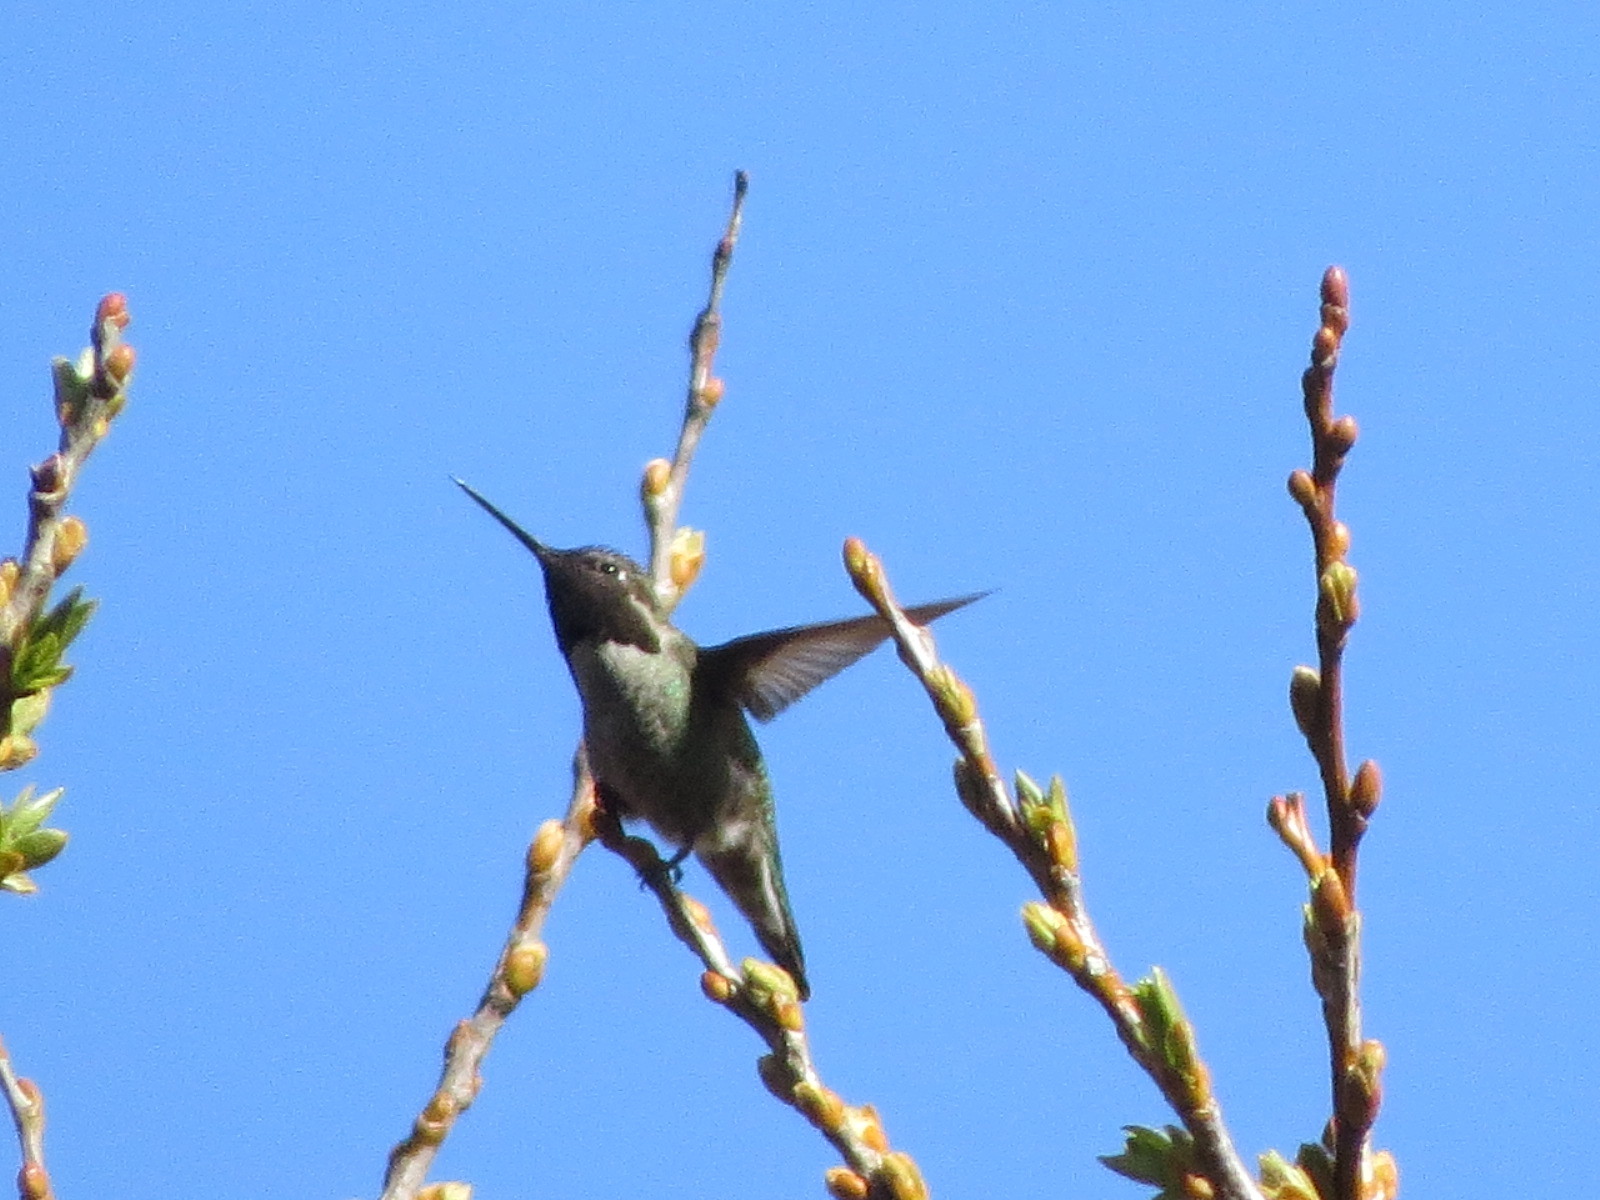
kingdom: Animalia
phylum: Chordata
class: Aves
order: Apodiformes
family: Trochilidae
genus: Calypte
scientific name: Calypte anna
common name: Anna's hummingbird
